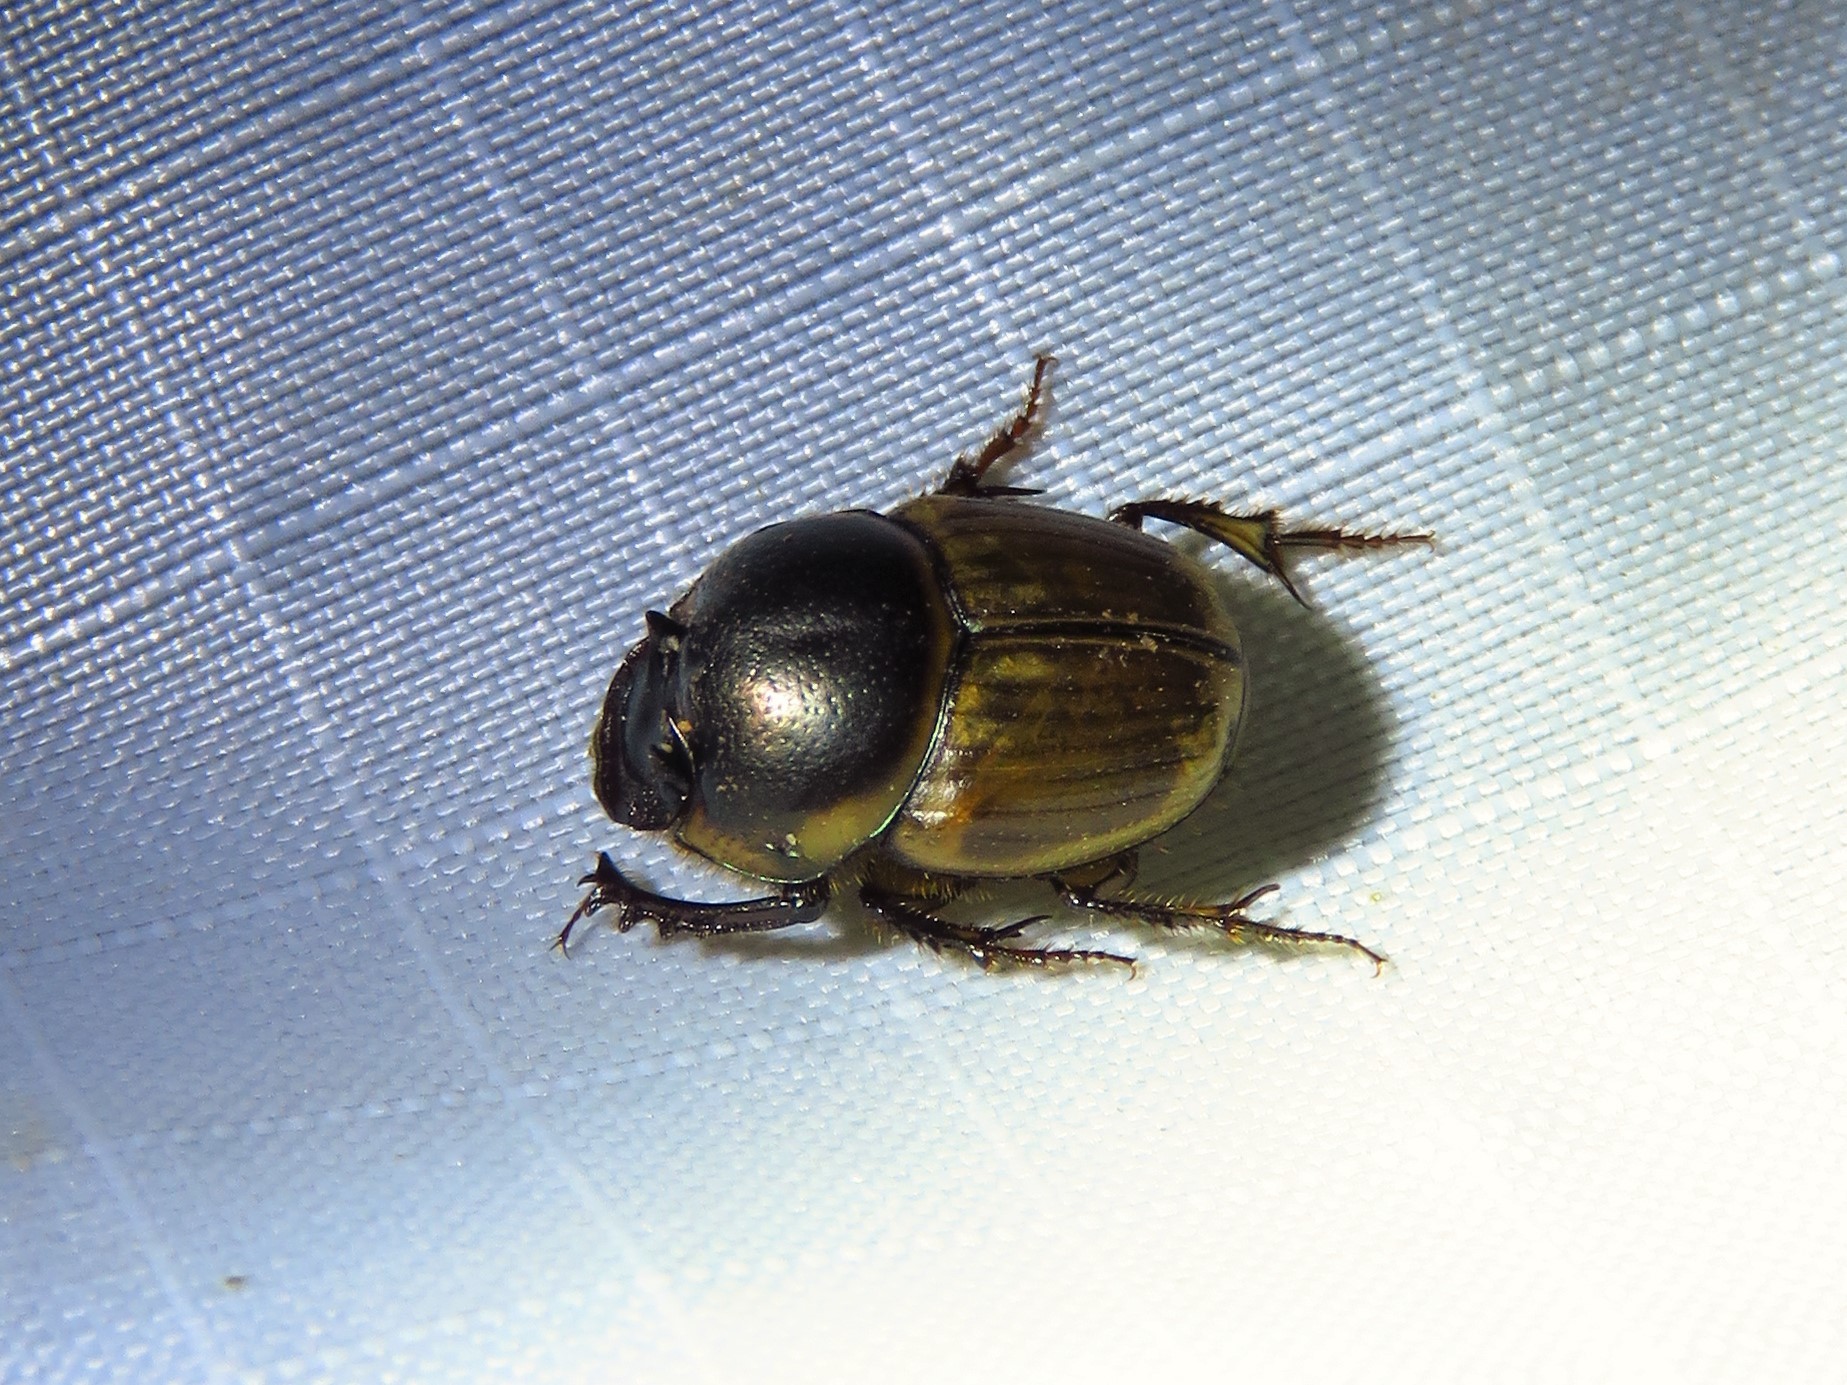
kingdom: Animalia
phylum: Arthropoda
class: Insecta
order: Coleoptera
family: Scarabaeidae
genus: Digitonthophagus
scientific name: Digitonthophagus gazella
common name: Brown dung beetle
